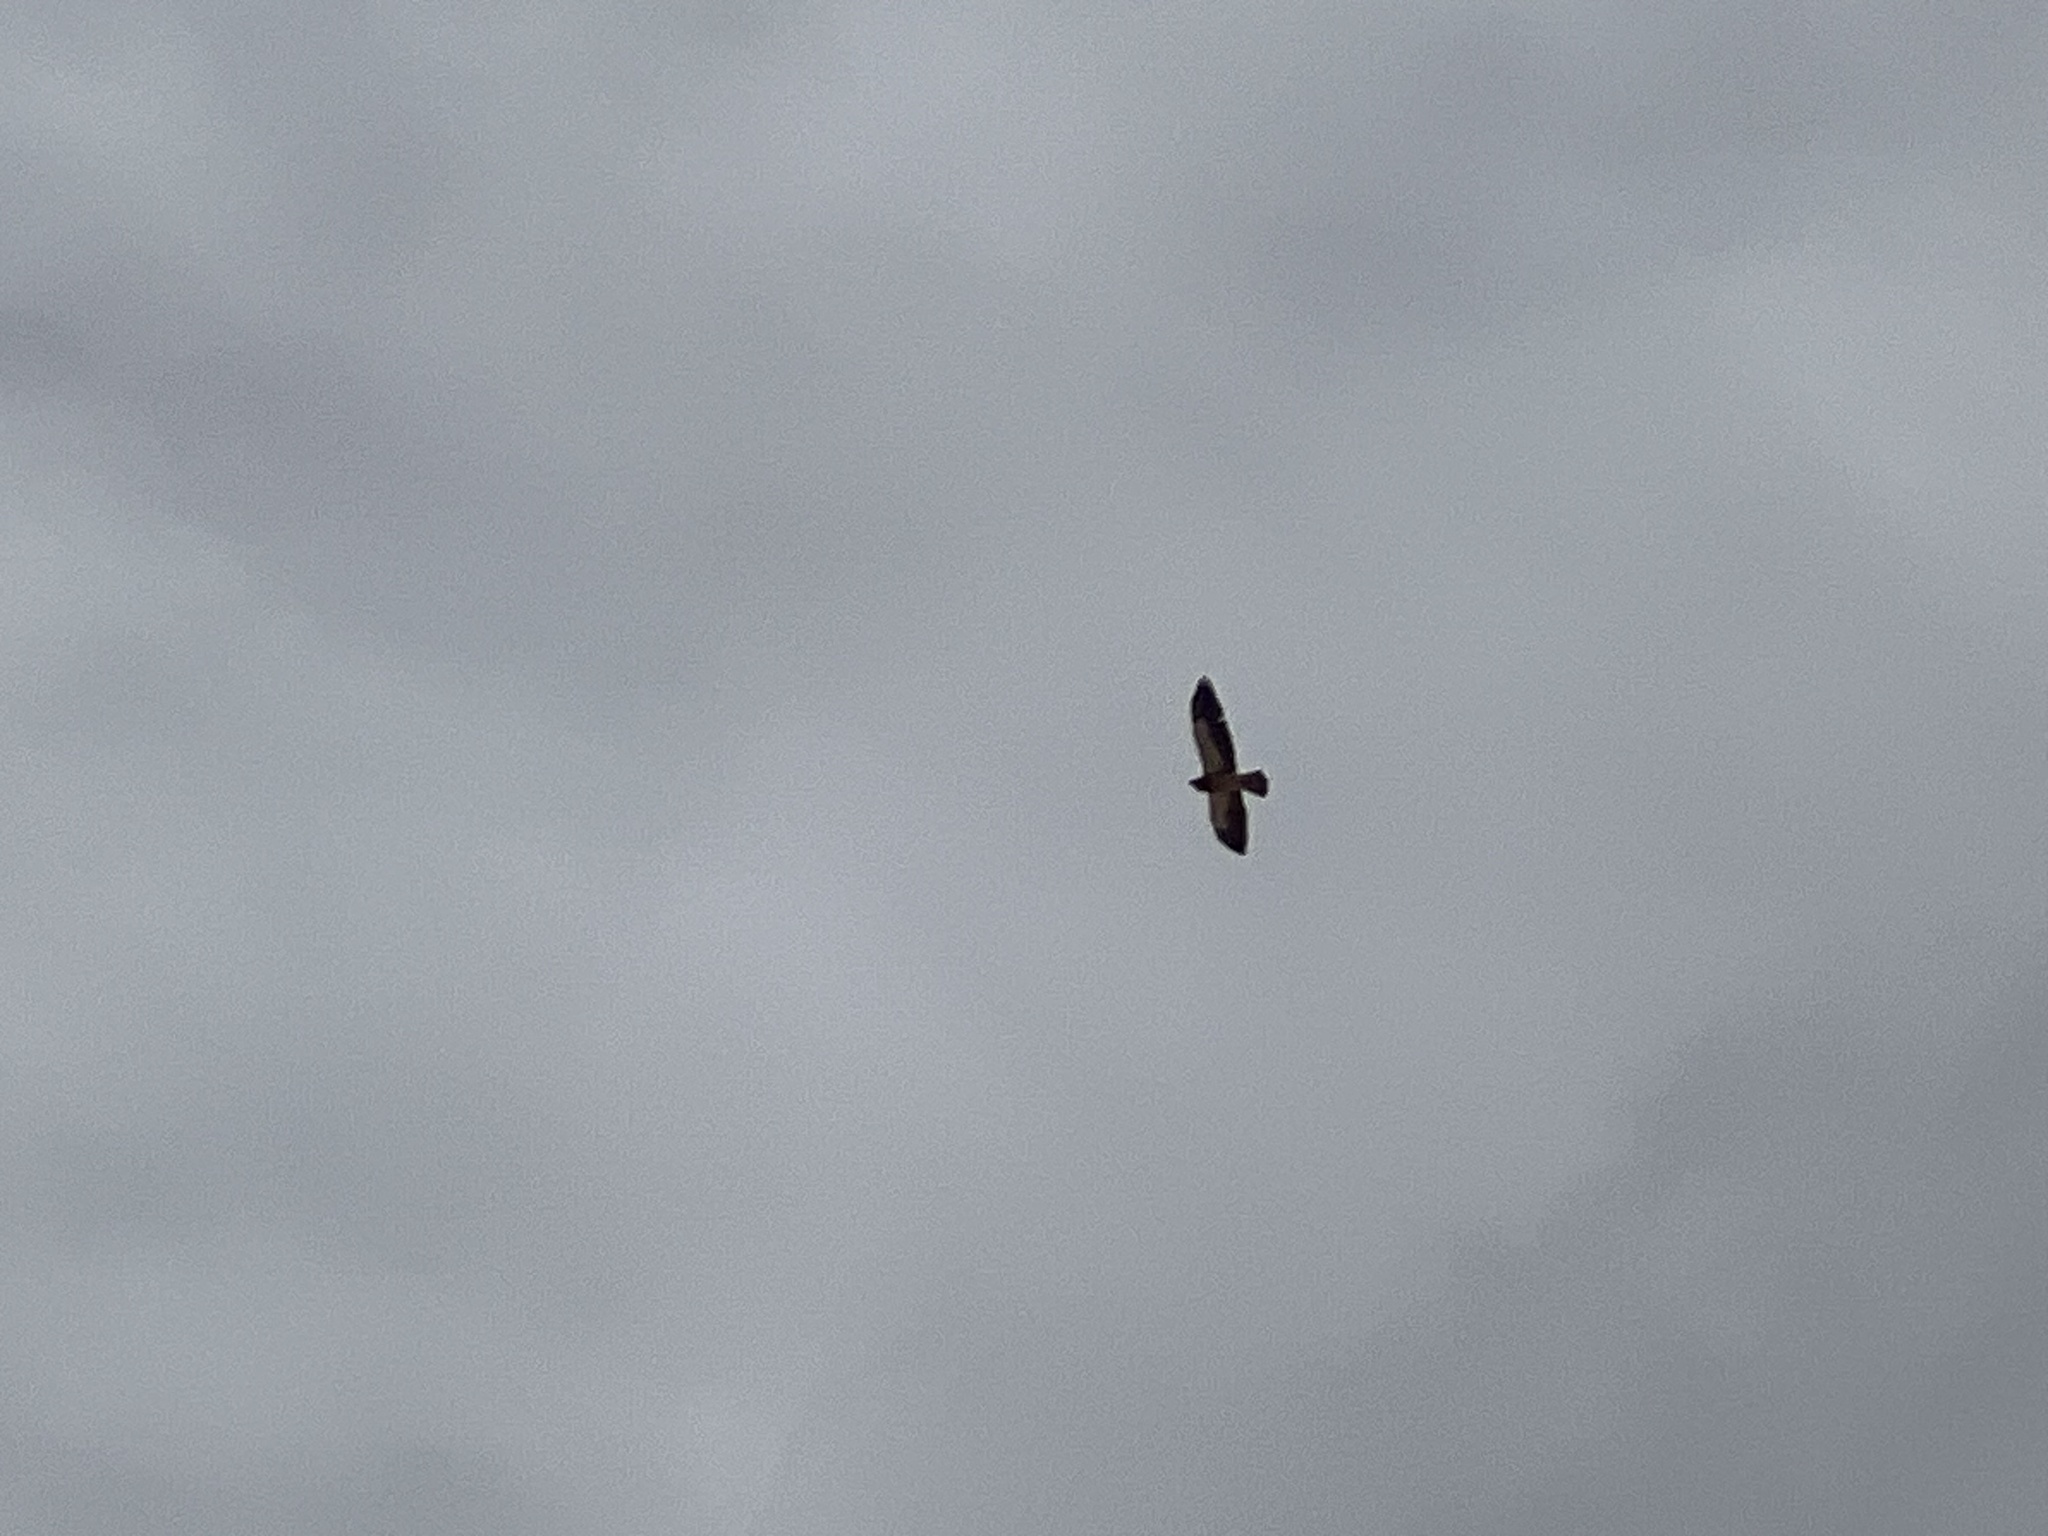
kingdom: Animalia
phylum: Chordata
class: Aves
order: Accipitriformes
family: Accipitridae
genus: Buteo
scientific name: Buteo swainsoni
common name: Swainson's hawk
